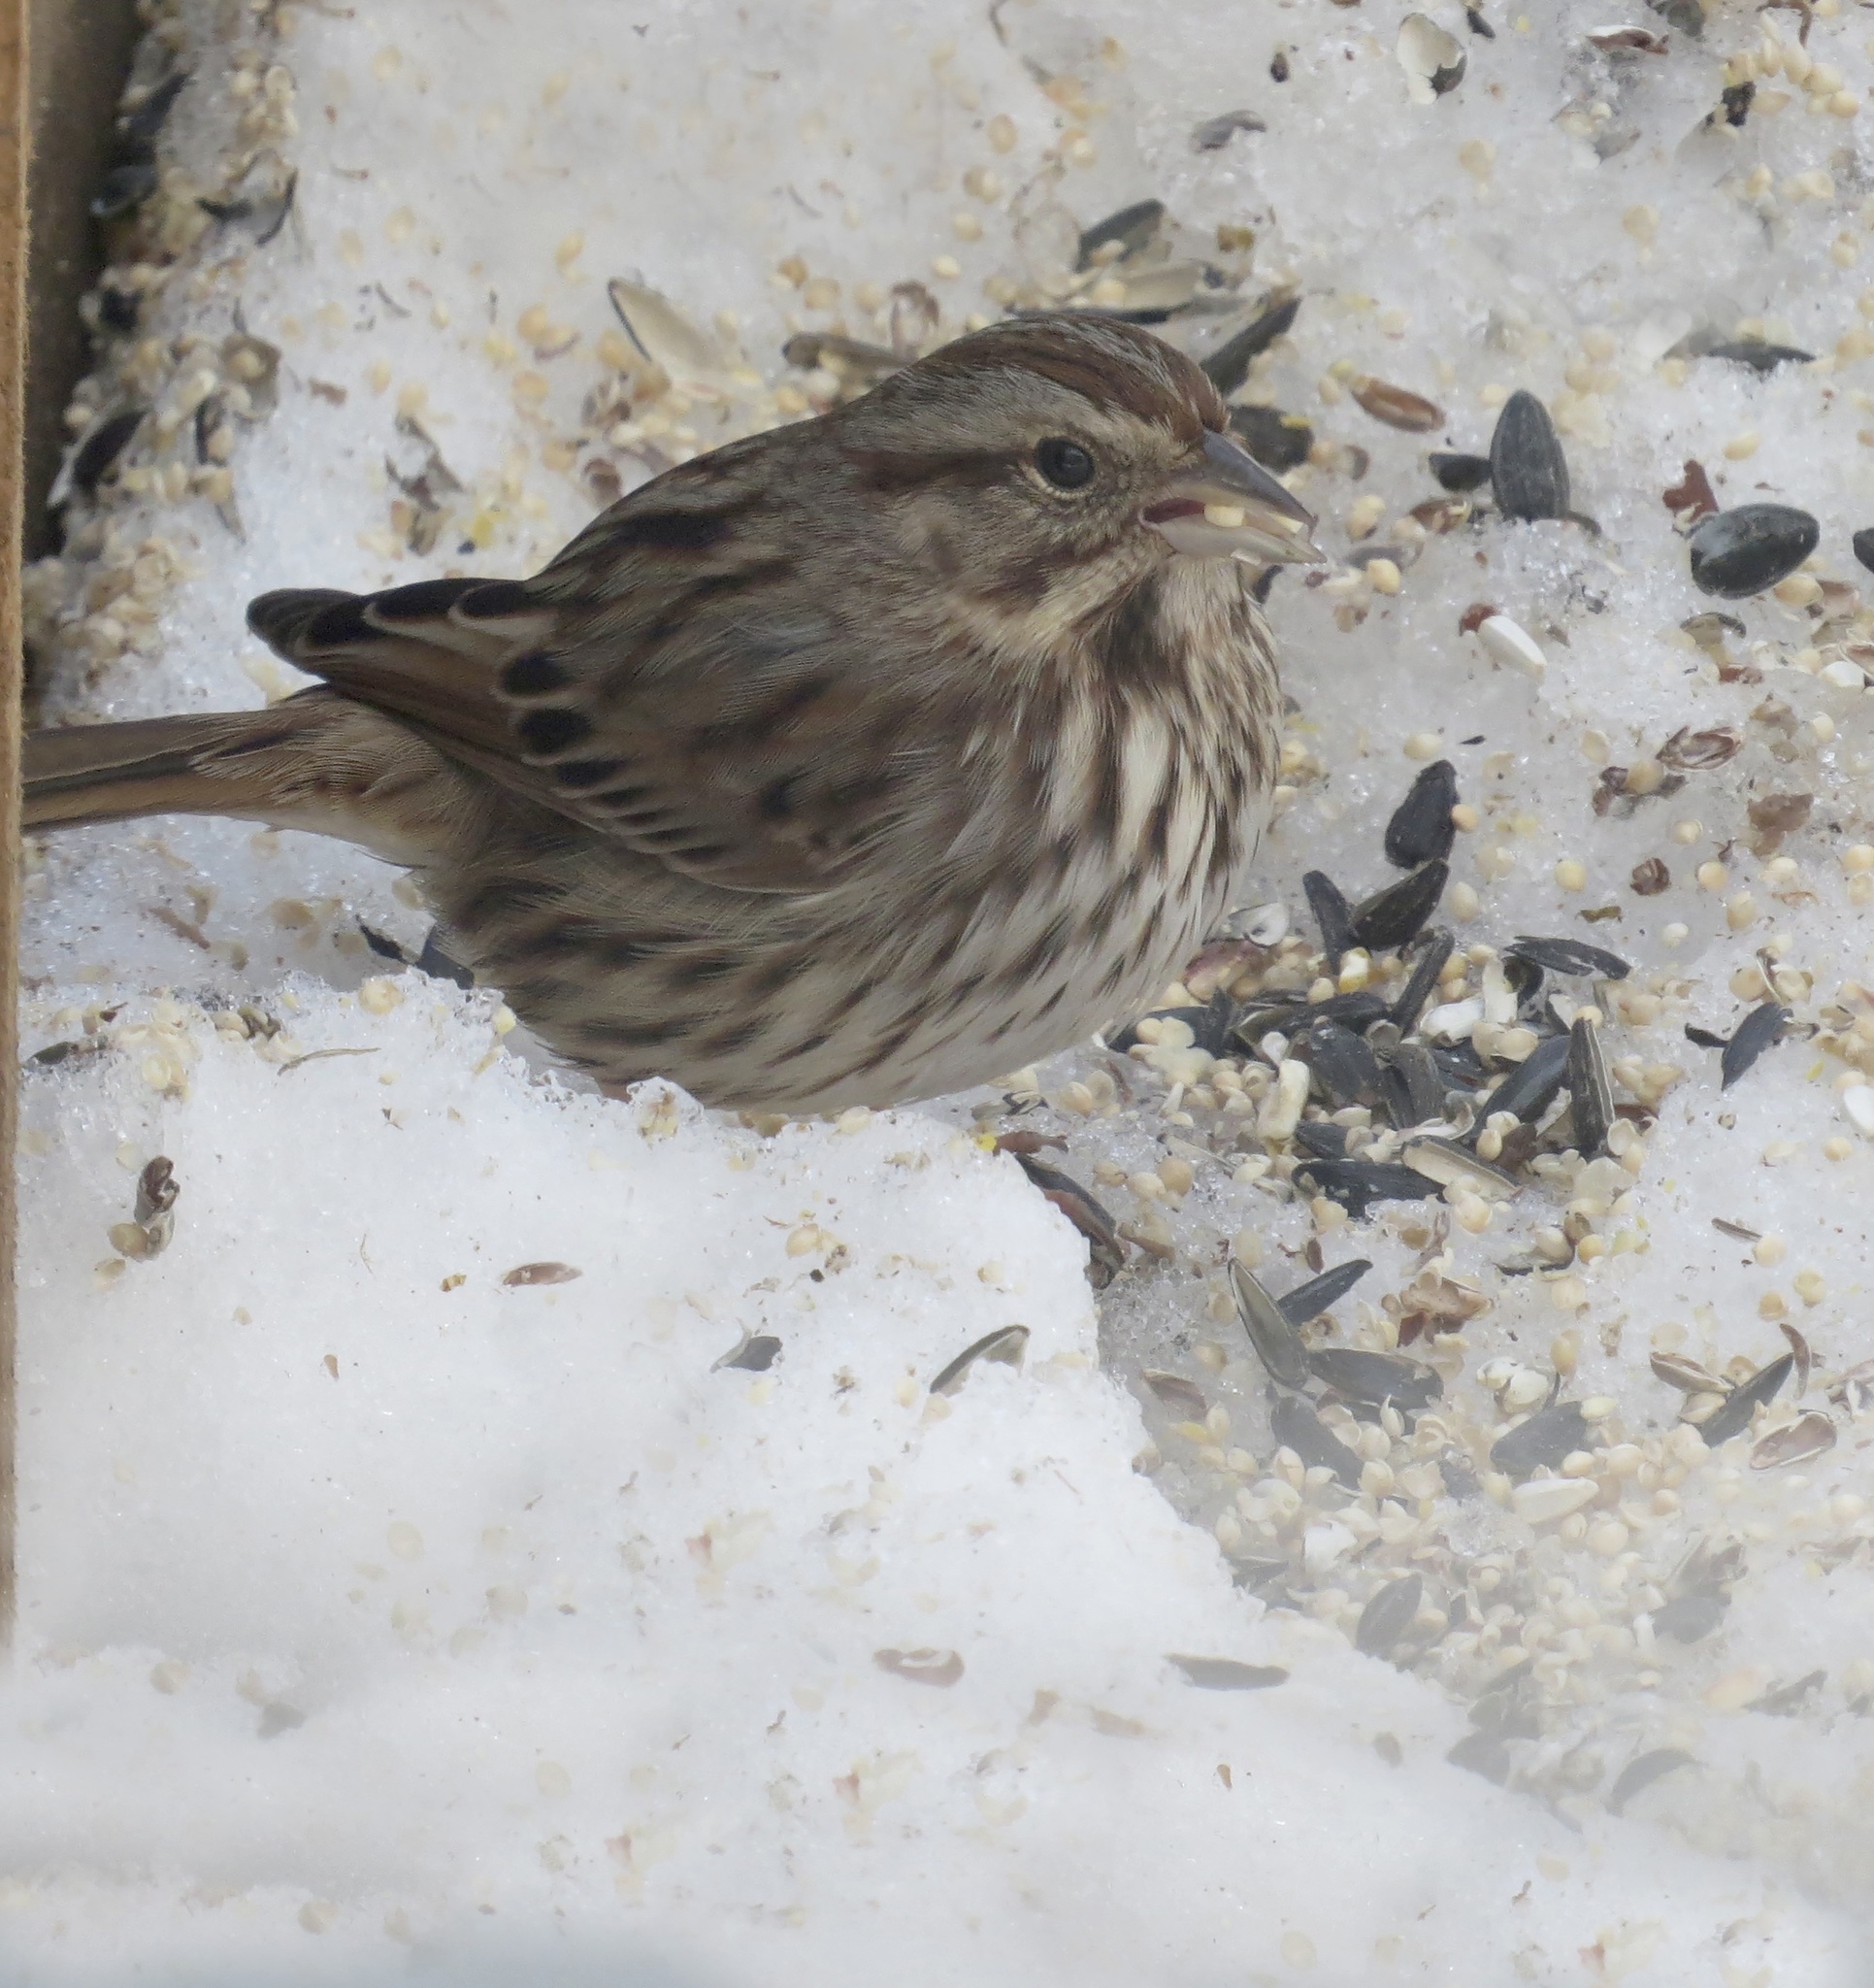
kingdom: Animalia
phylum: Chordata
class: Aves
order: Passeriformes
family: Passerellidae
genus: Melospiza
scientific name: Melospiza melodia
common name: Song sparrow
